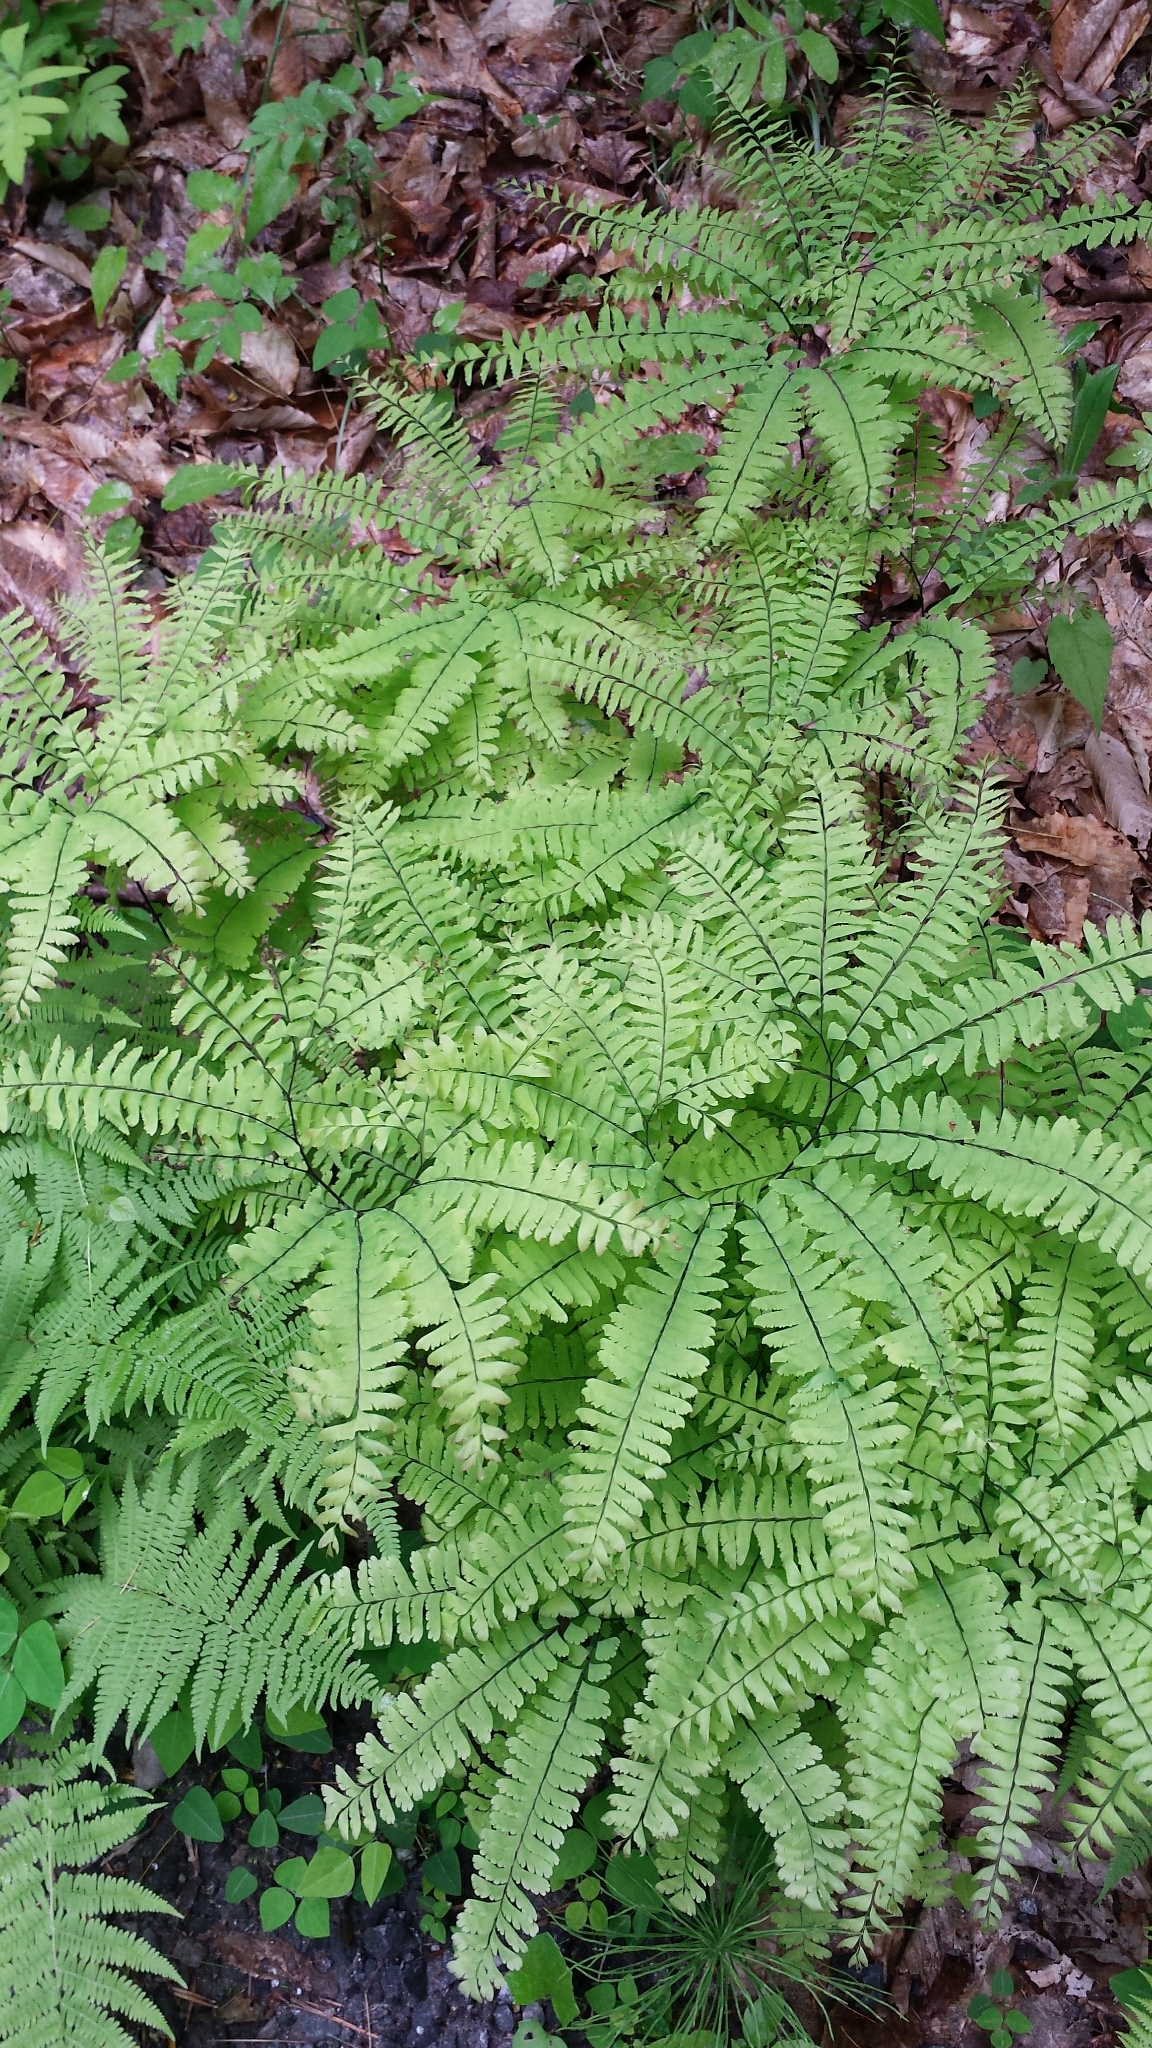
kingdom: Plantae
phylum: Tracheophyta
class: Polypodiopsida
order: Polypodiales
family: Pteridaceae
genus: Adiantum
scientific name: Adiantum pedatum
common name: Five-finger fern
